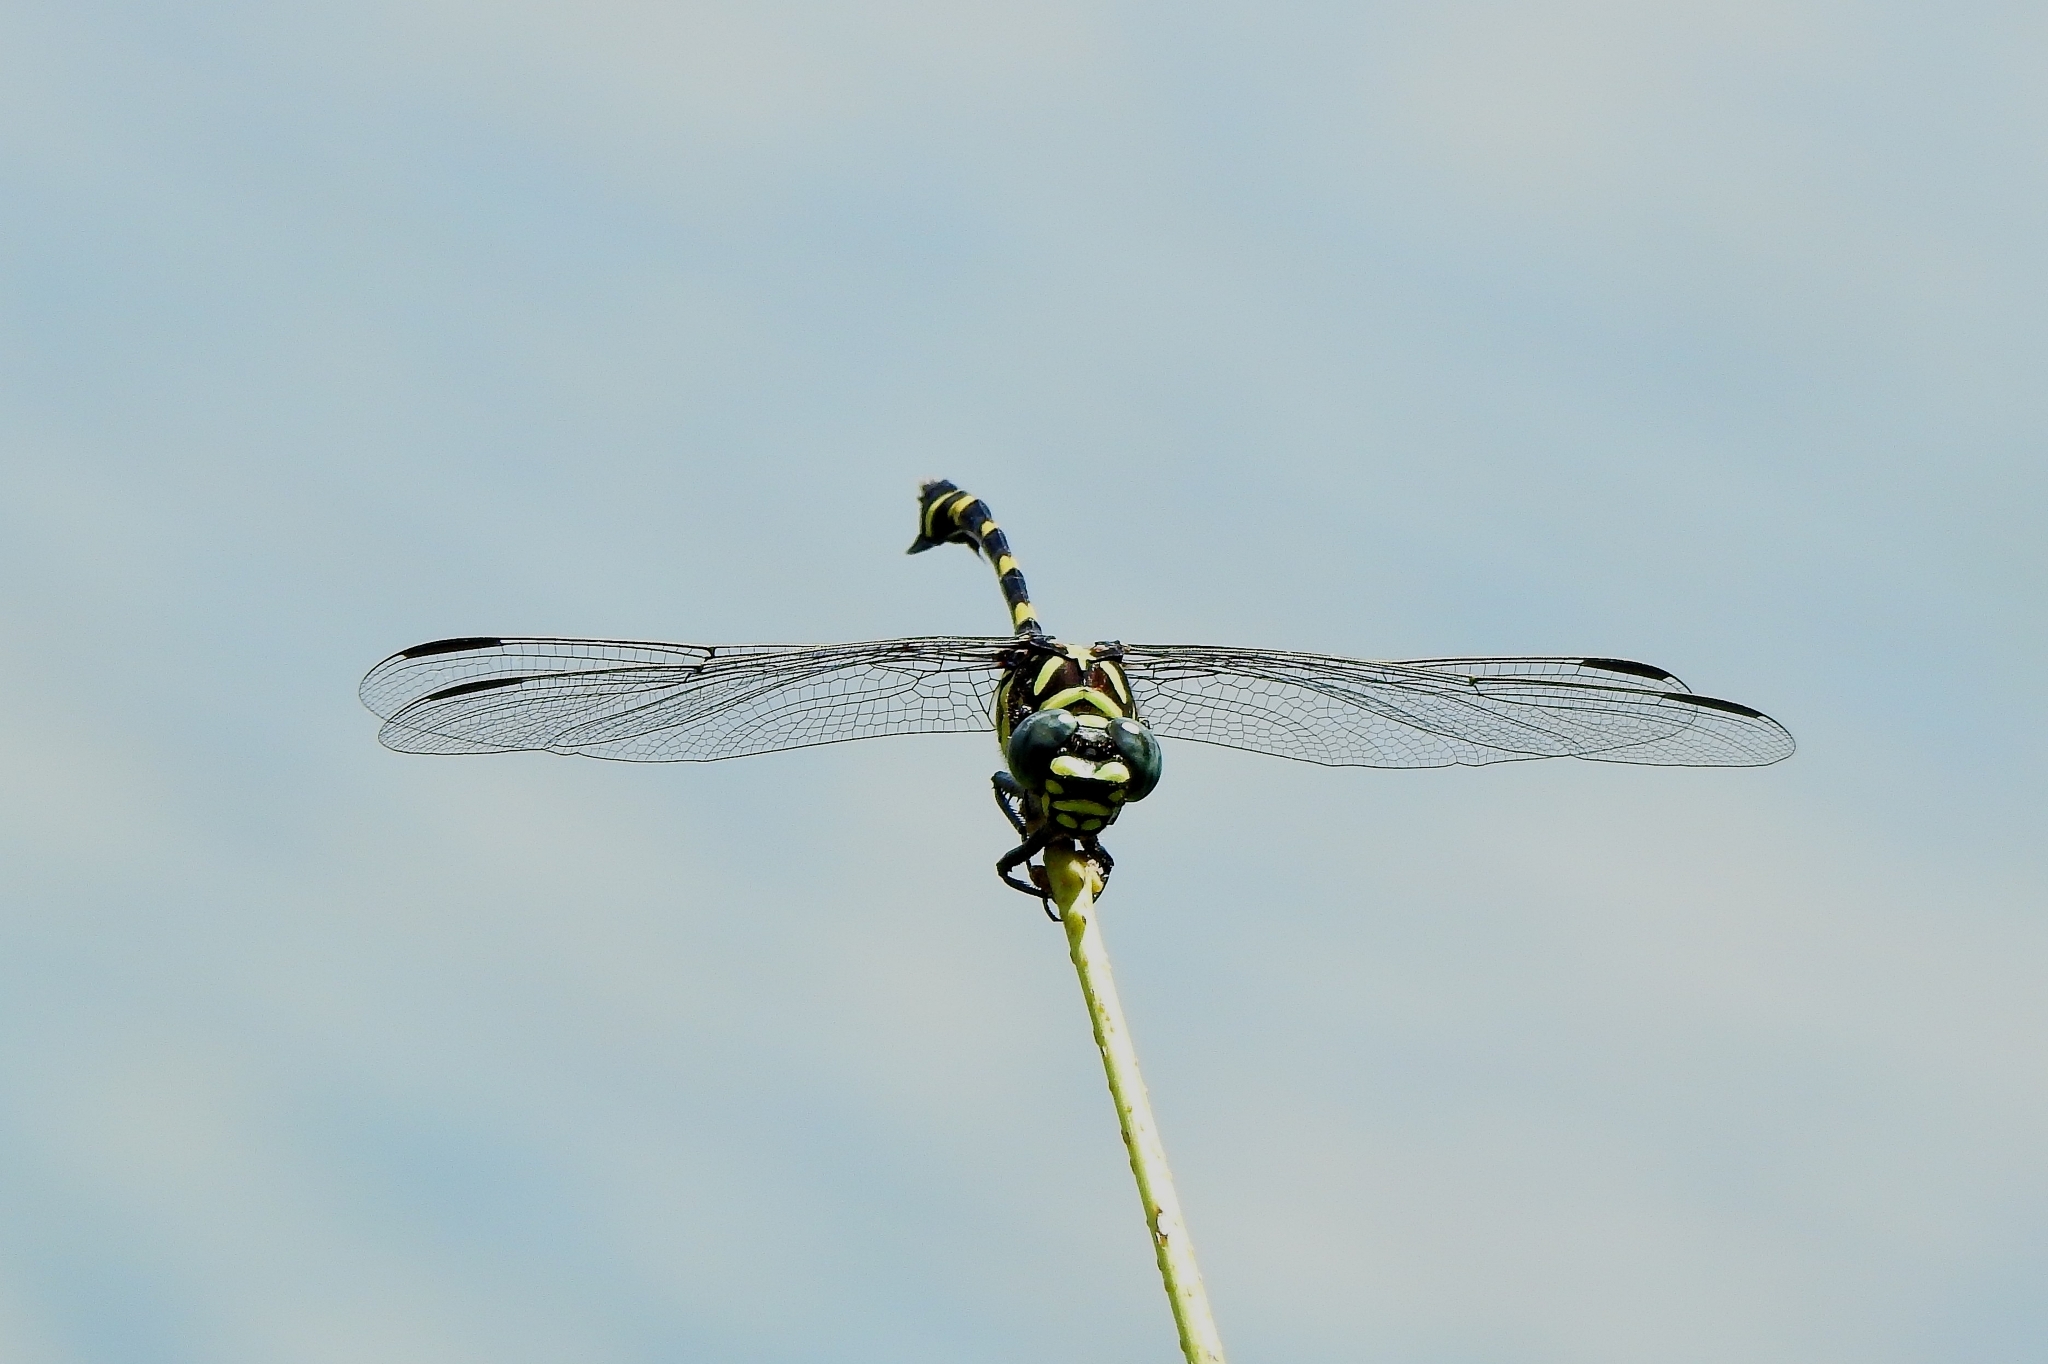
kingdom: Animalia
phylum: Arthropoda
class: Insecta
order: Odonata
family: Gomphidae
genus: Ictinogomphus
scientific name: Ictinogomphus rapax
